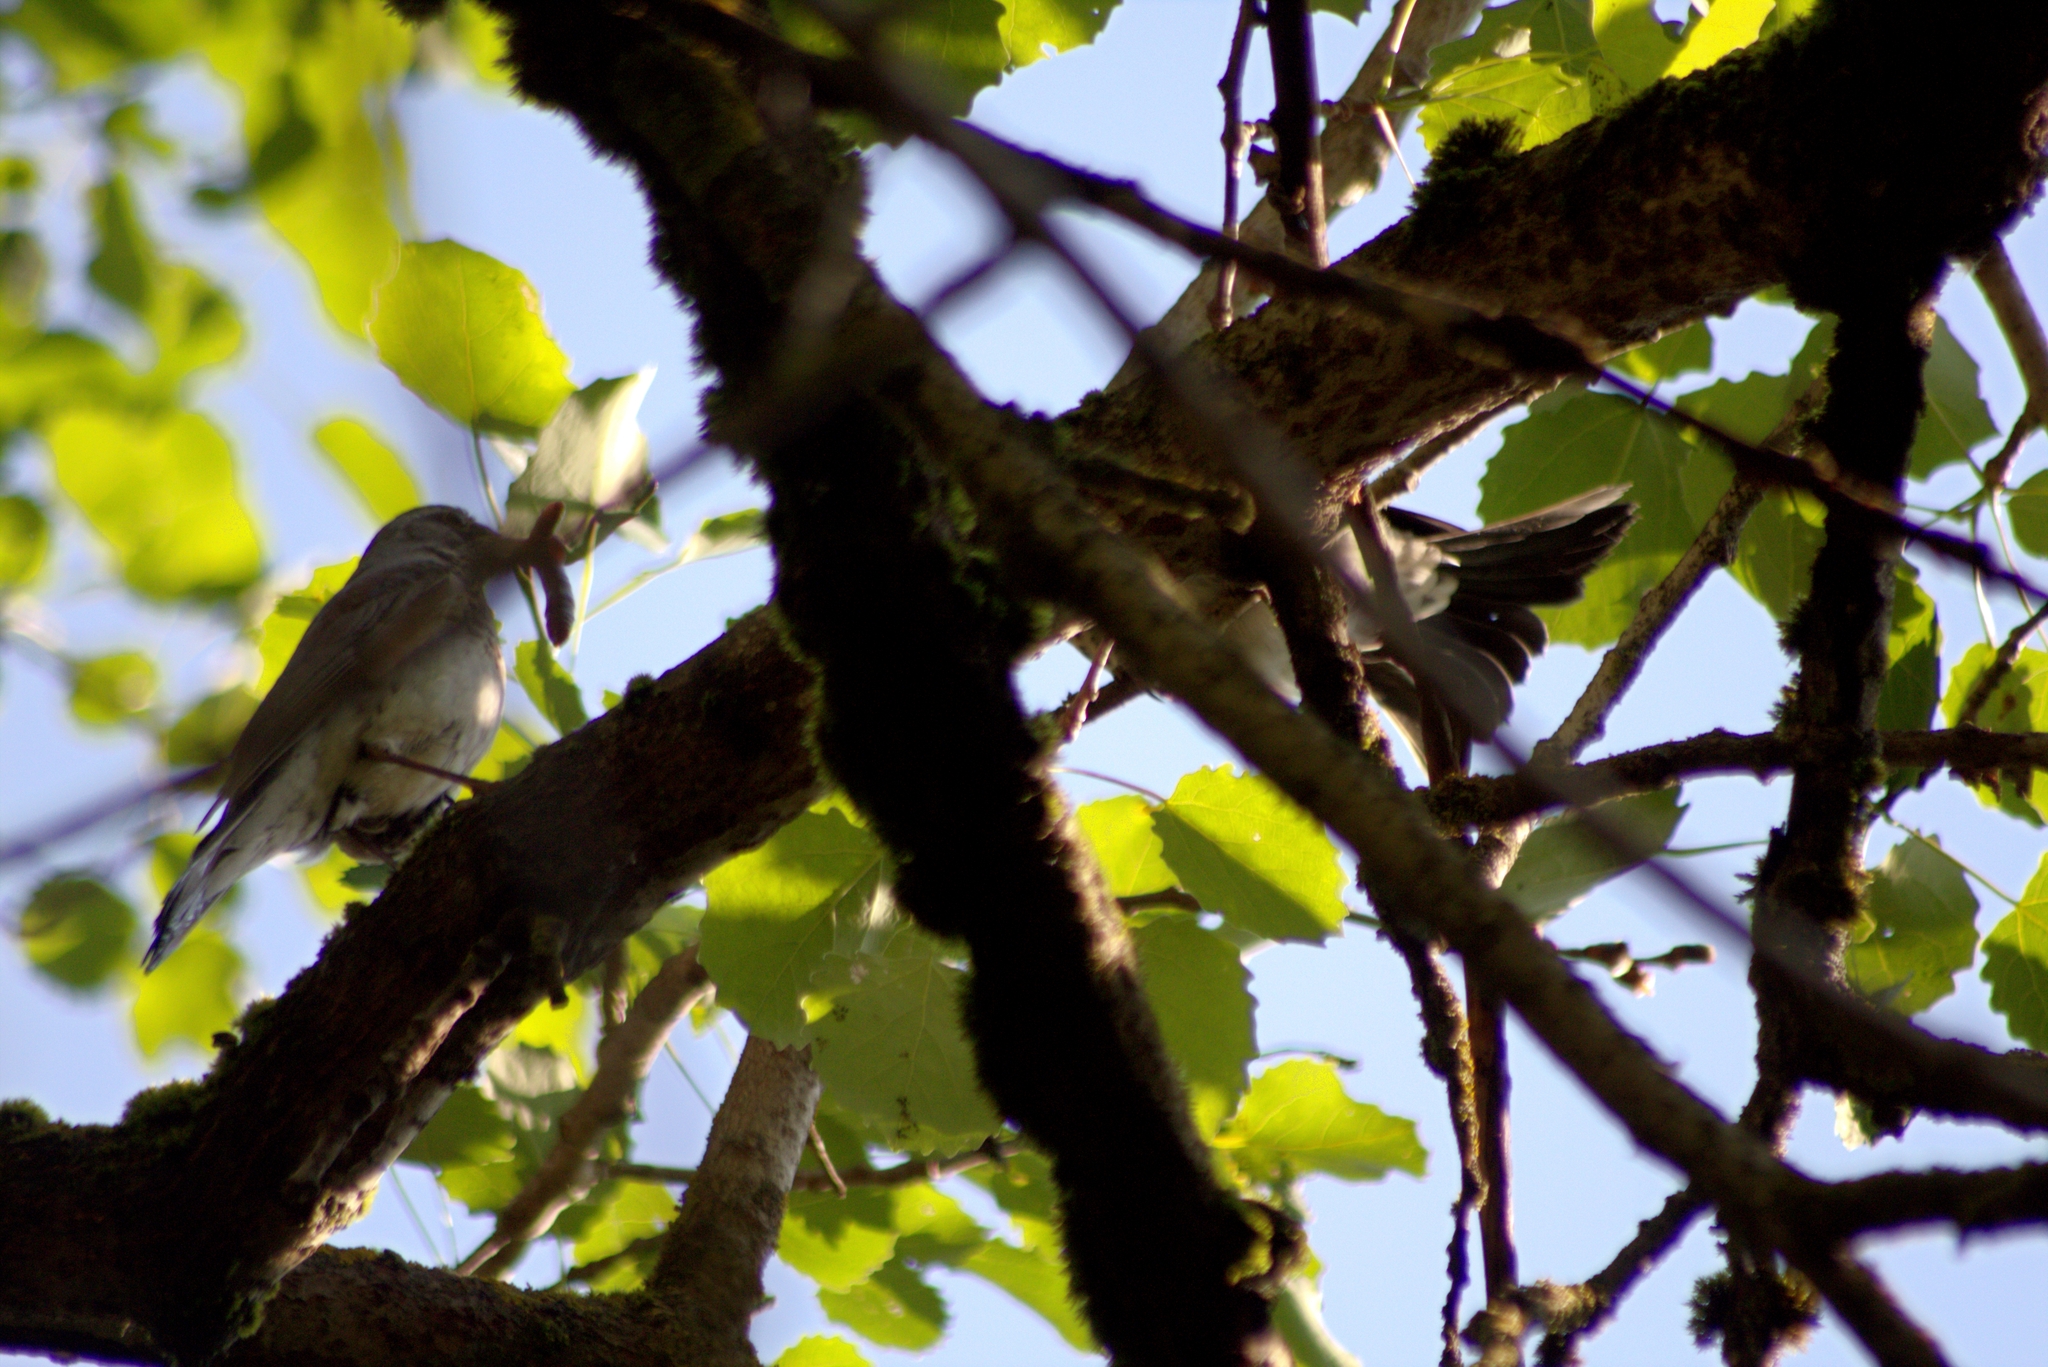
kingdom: Animalia
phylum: Chordata
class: Aves
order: Passeriformes
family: Turdidae
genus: Turdus
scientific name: Turdus pilaris
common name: Fieldfare
